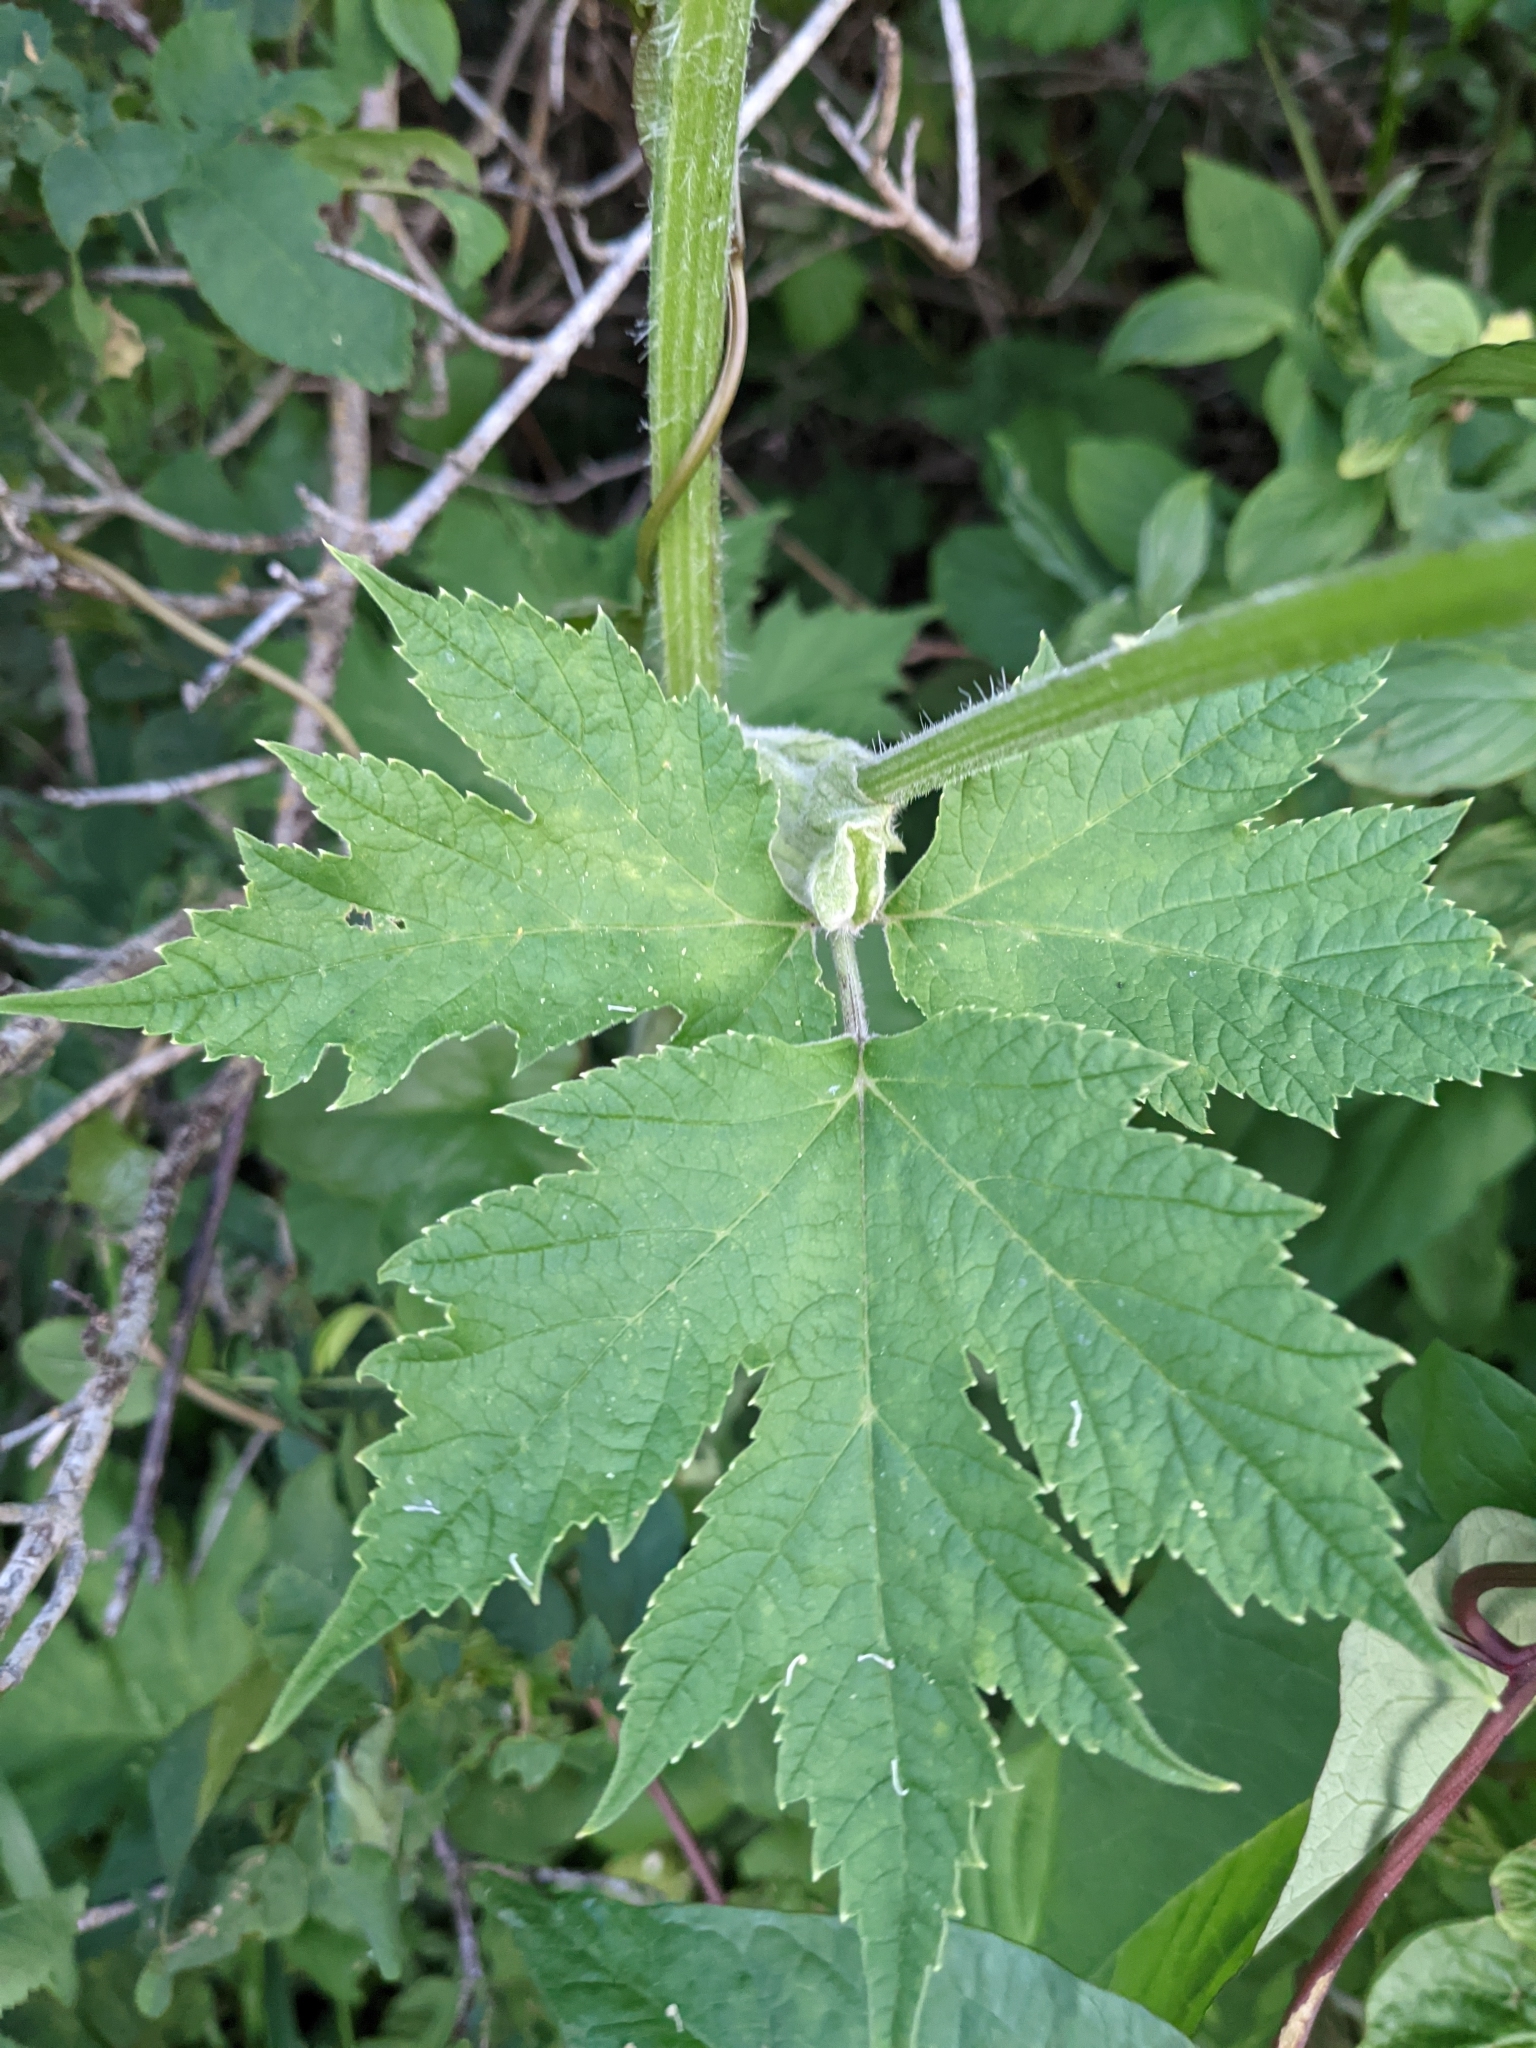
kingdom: Plantae
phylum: Tracheophyta
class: Magnoliopsida
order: Apiales
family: Apiaceae
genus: Heracleum
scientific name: Heracleum maximum
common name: American cow parsnip
